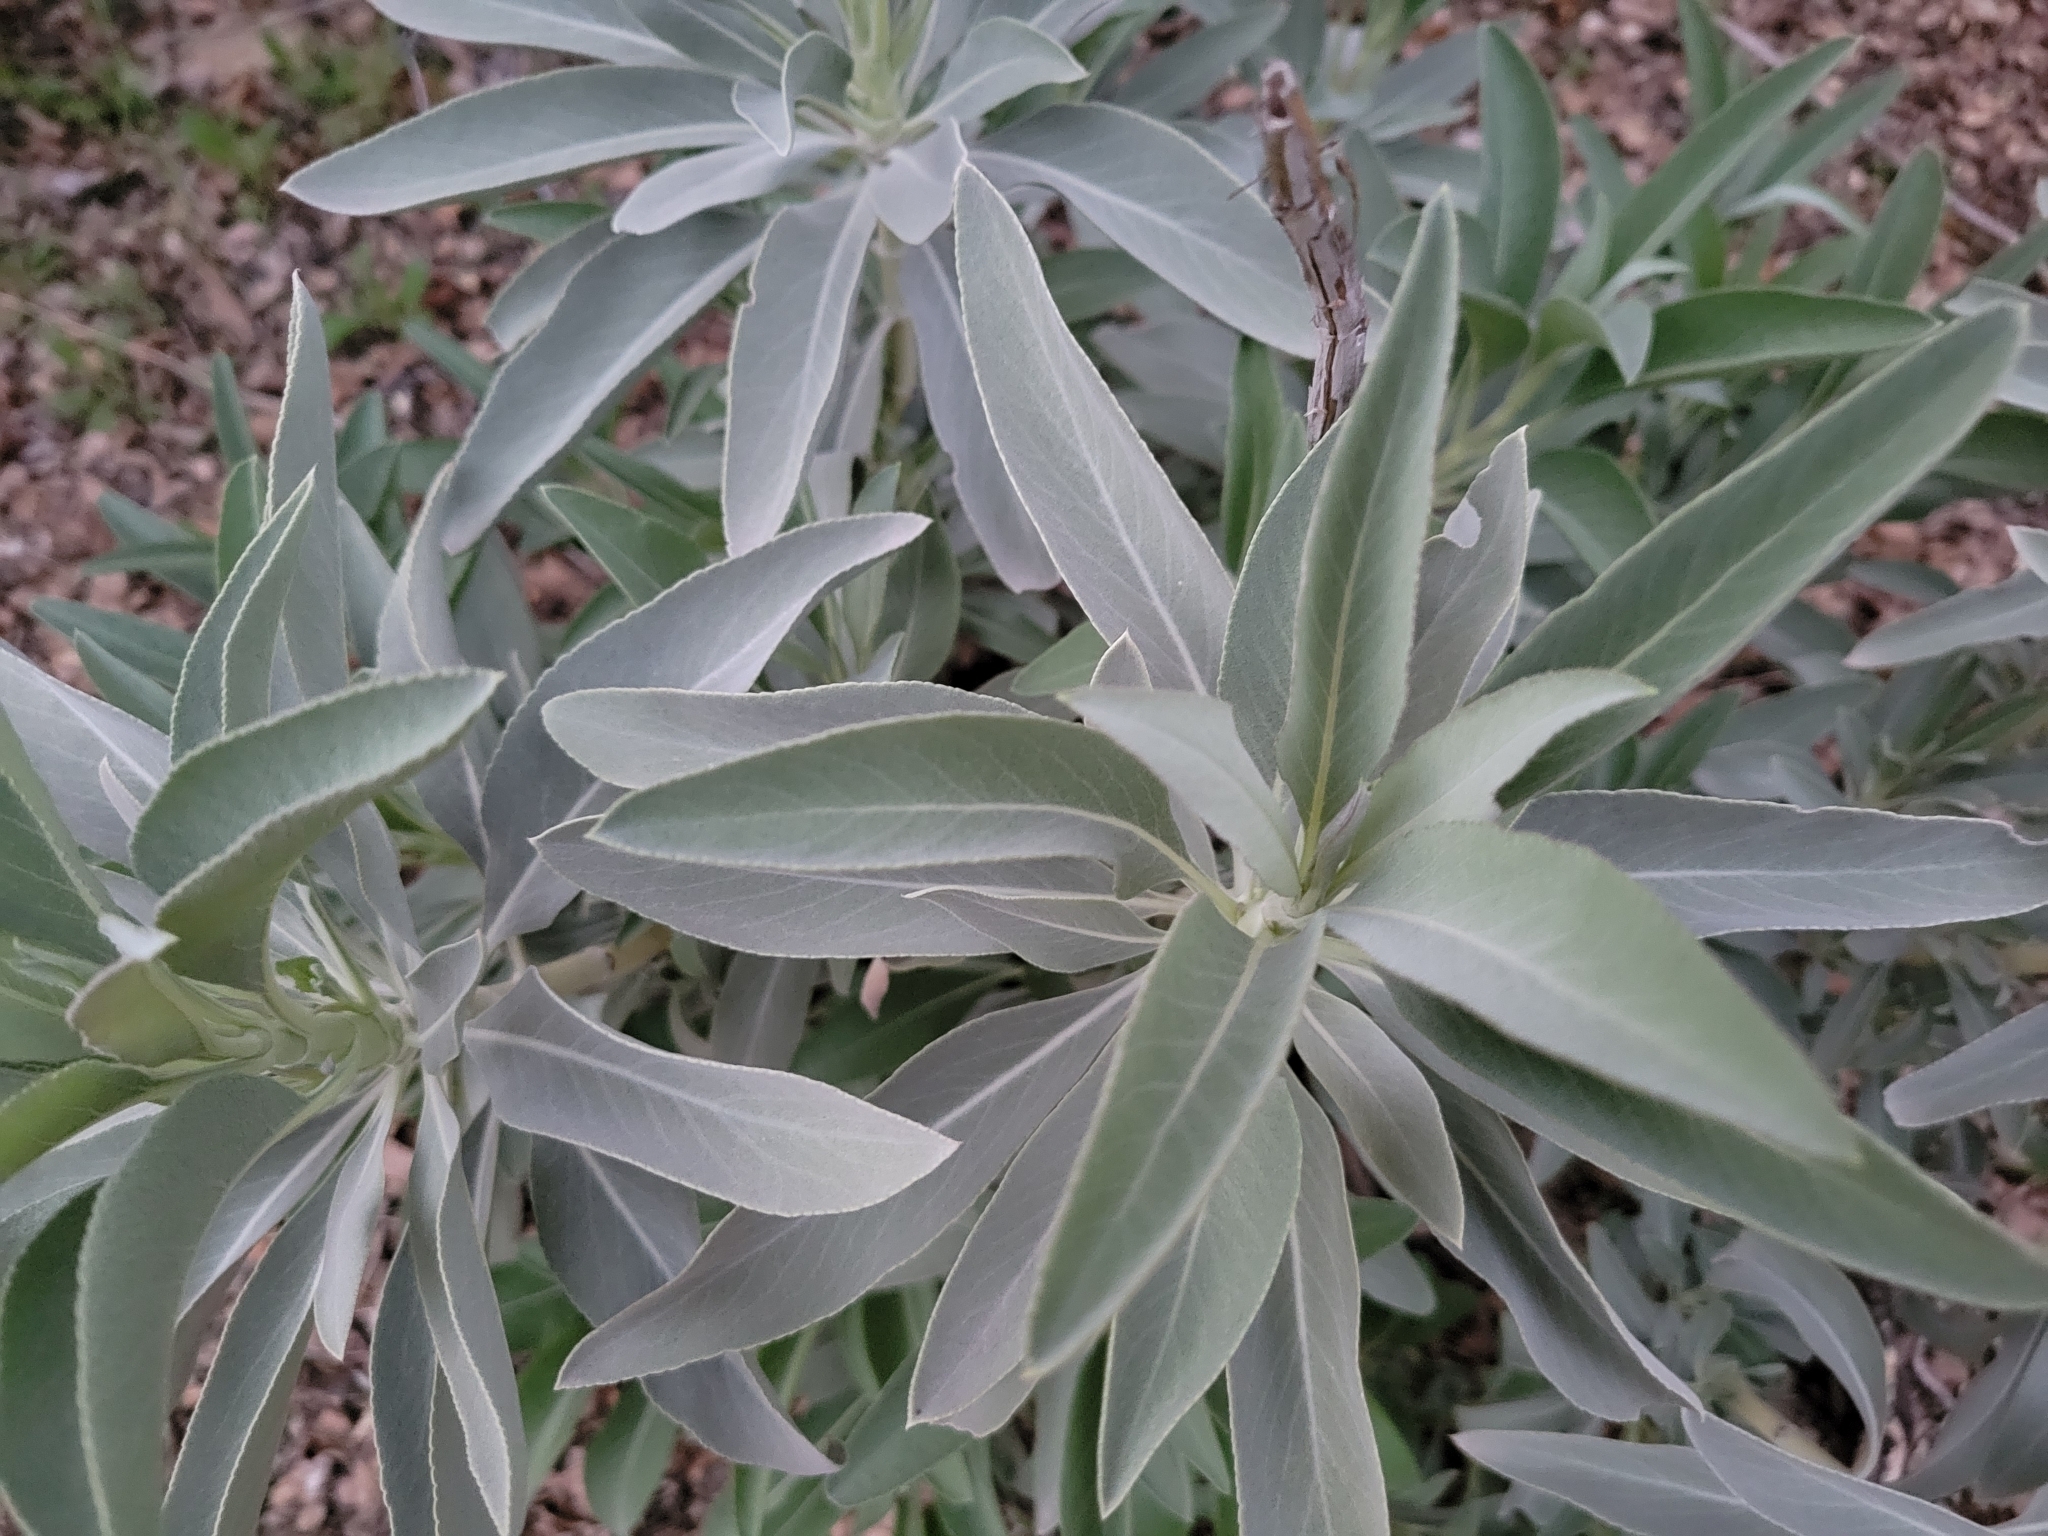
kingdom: Plantae
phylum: Tracheophyta
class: Magnoliopsida
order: Lamiales
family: Lamiaceae
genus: Salvia
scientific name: Salvia apiana
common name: White sage
